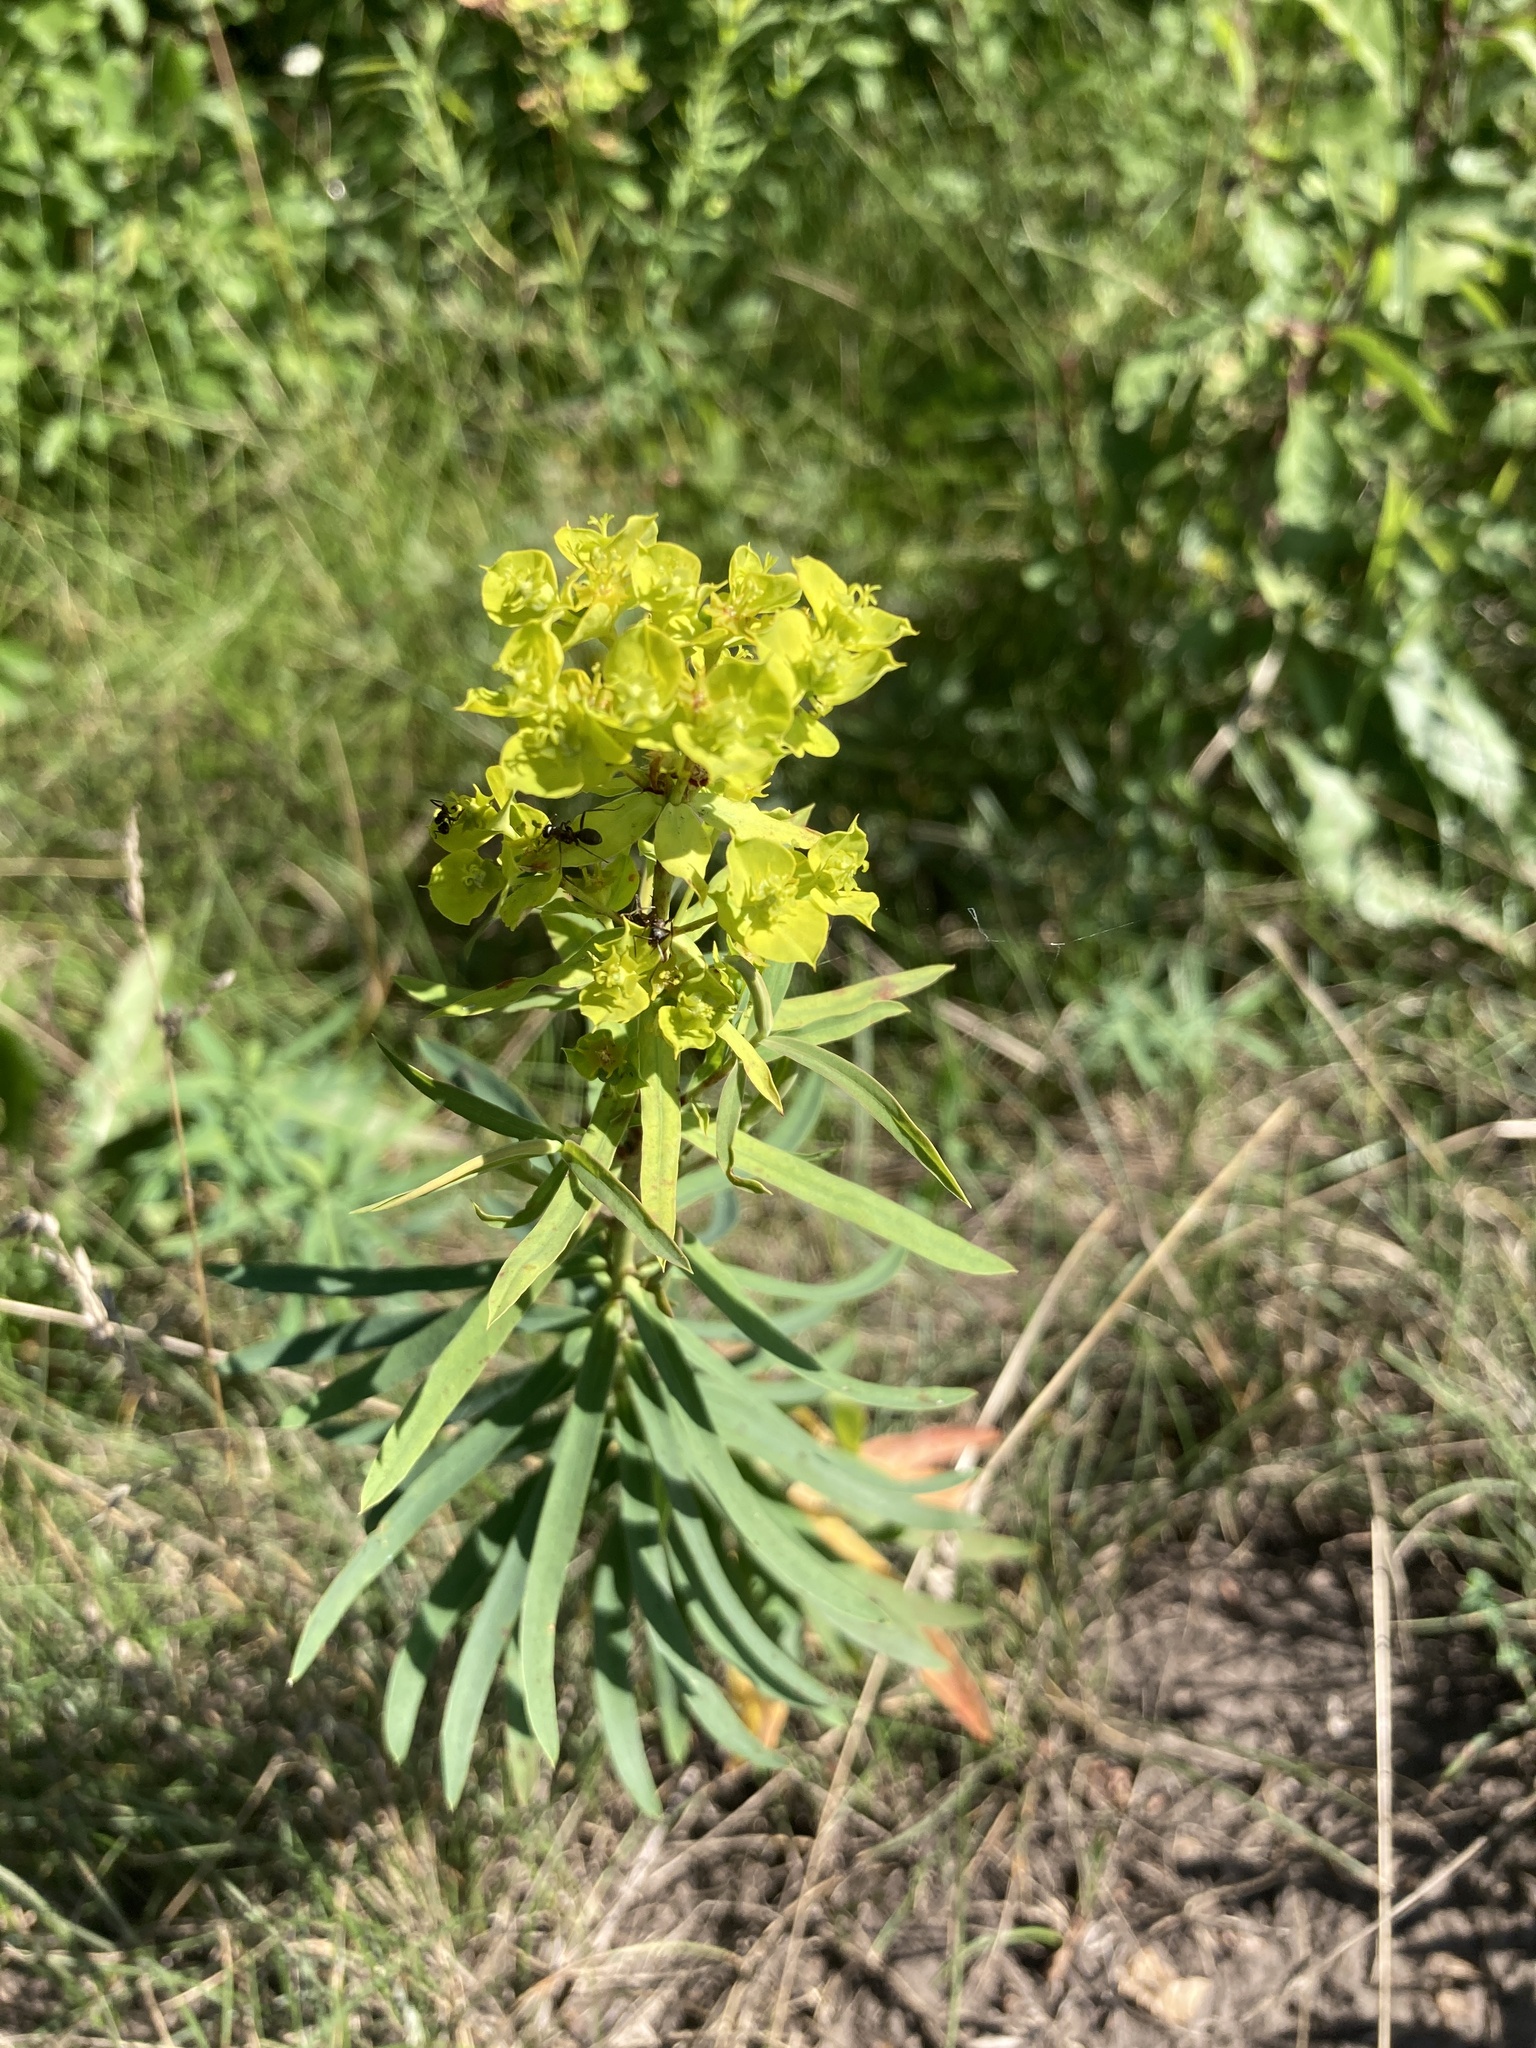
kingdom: Plantae
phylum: Tracheophyta
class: Magnoliopsida
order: Malpighiales
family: Euphorbiaceae
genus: Euphorbia
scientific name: Euphorbia virgata
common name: Leafy spurge
